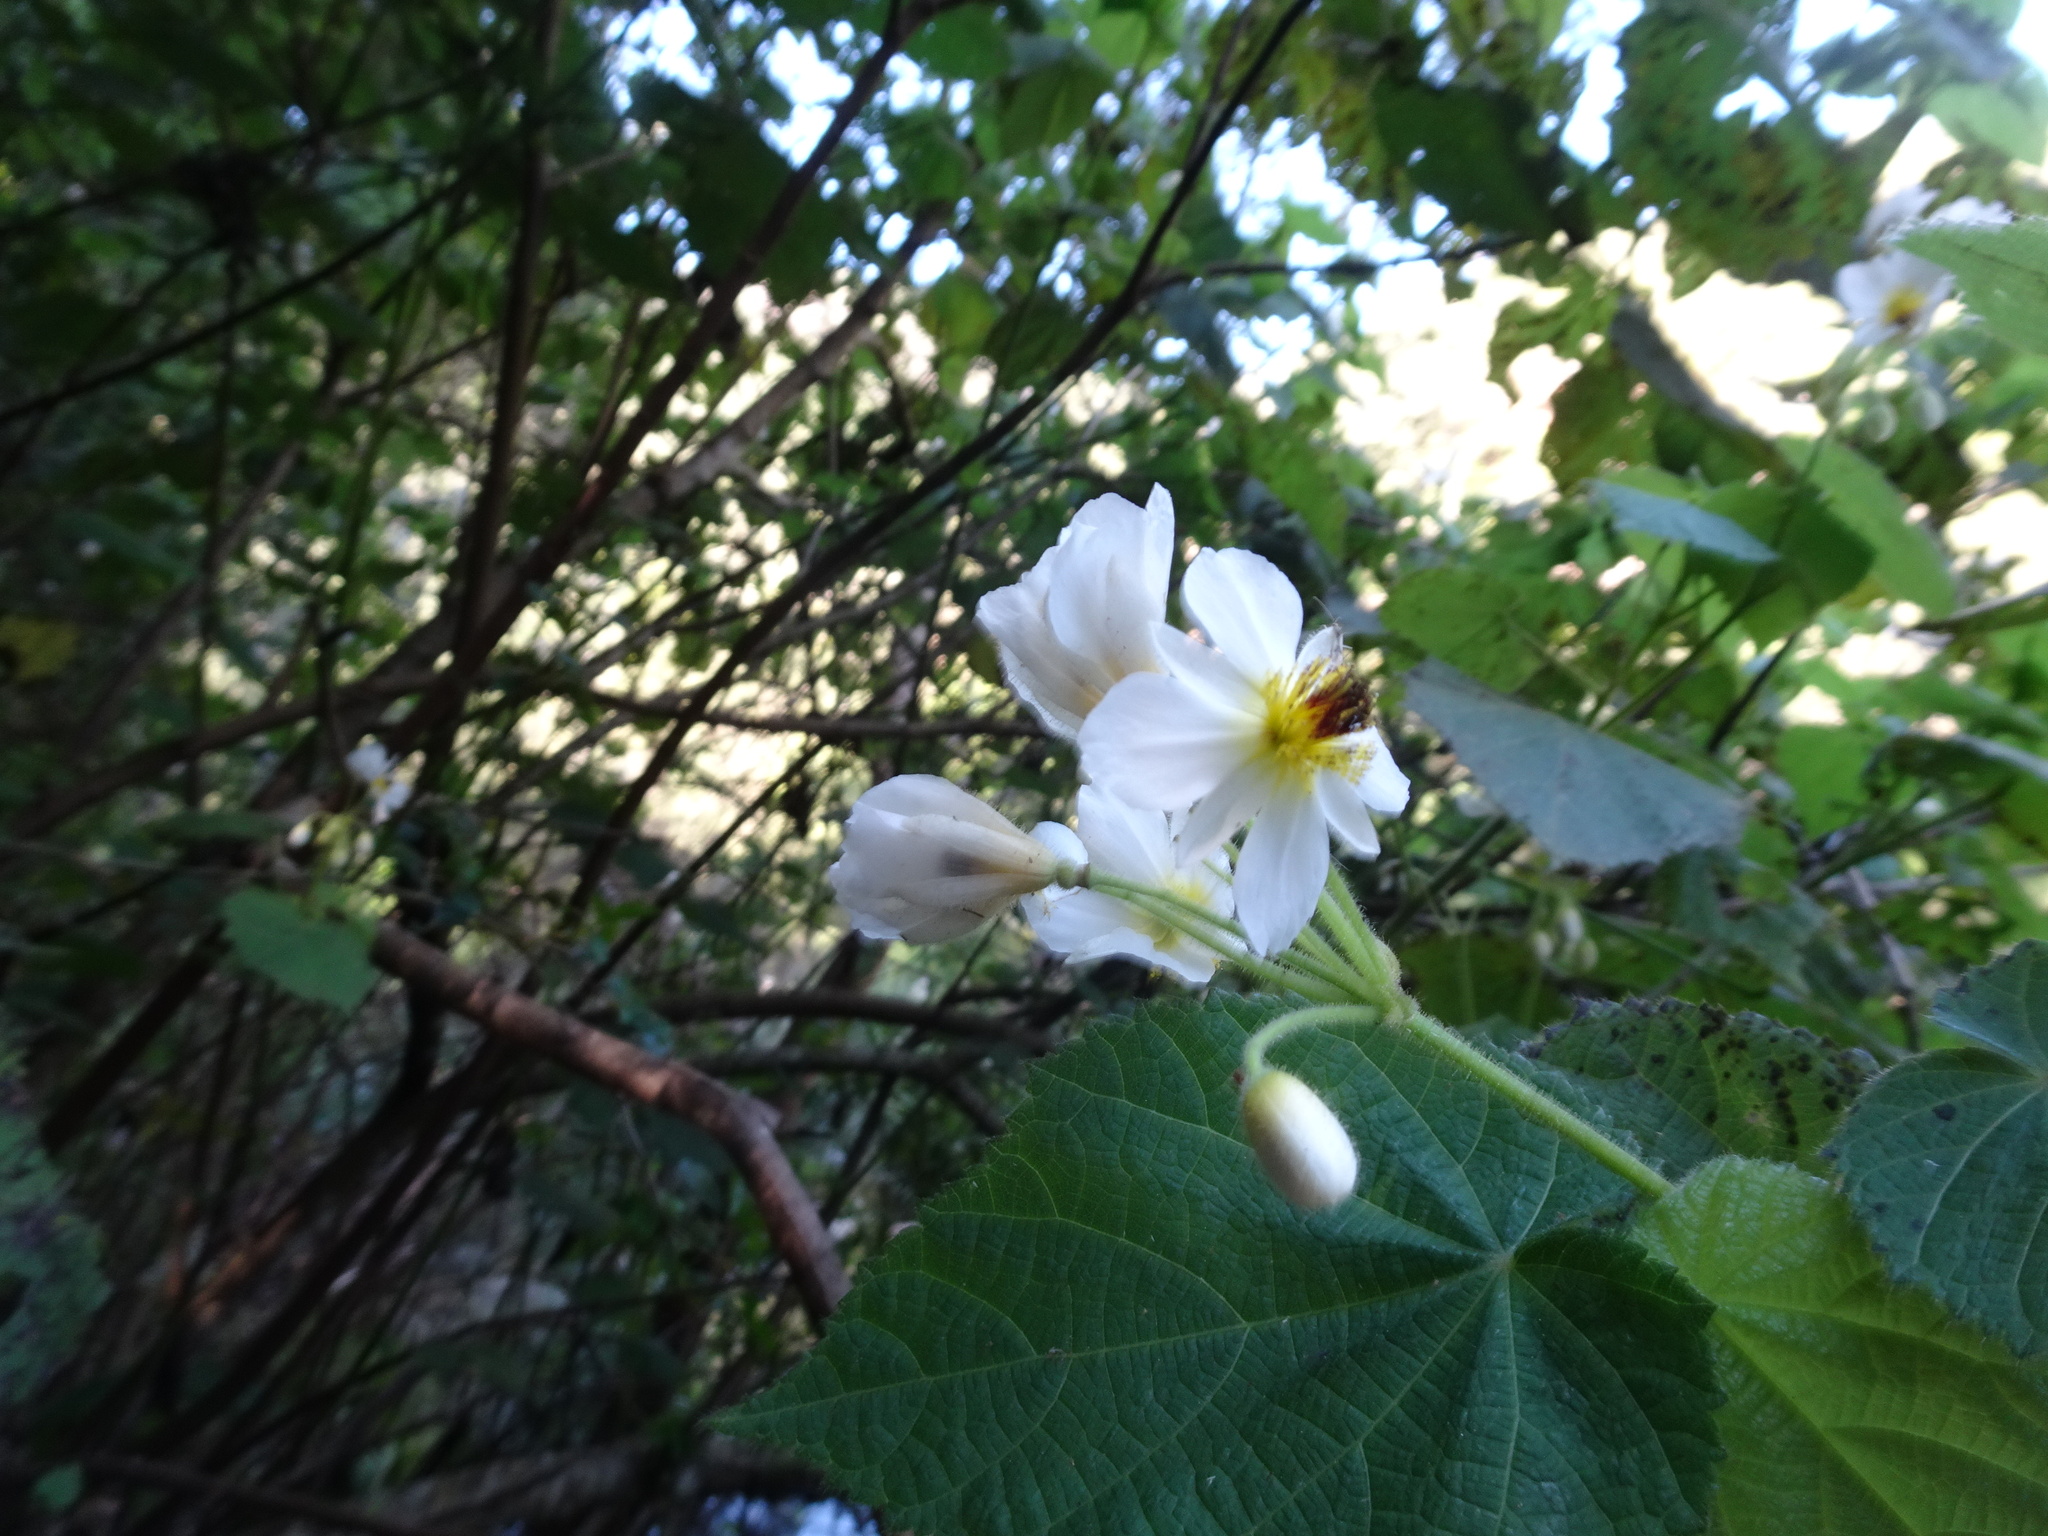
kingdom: Plantae
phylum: Tracheophyta
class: Magnoliopsida
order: Malvales
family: Malvaceae
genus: Sparrmannia
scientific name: Sparrmannia africana
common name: African-hemp
